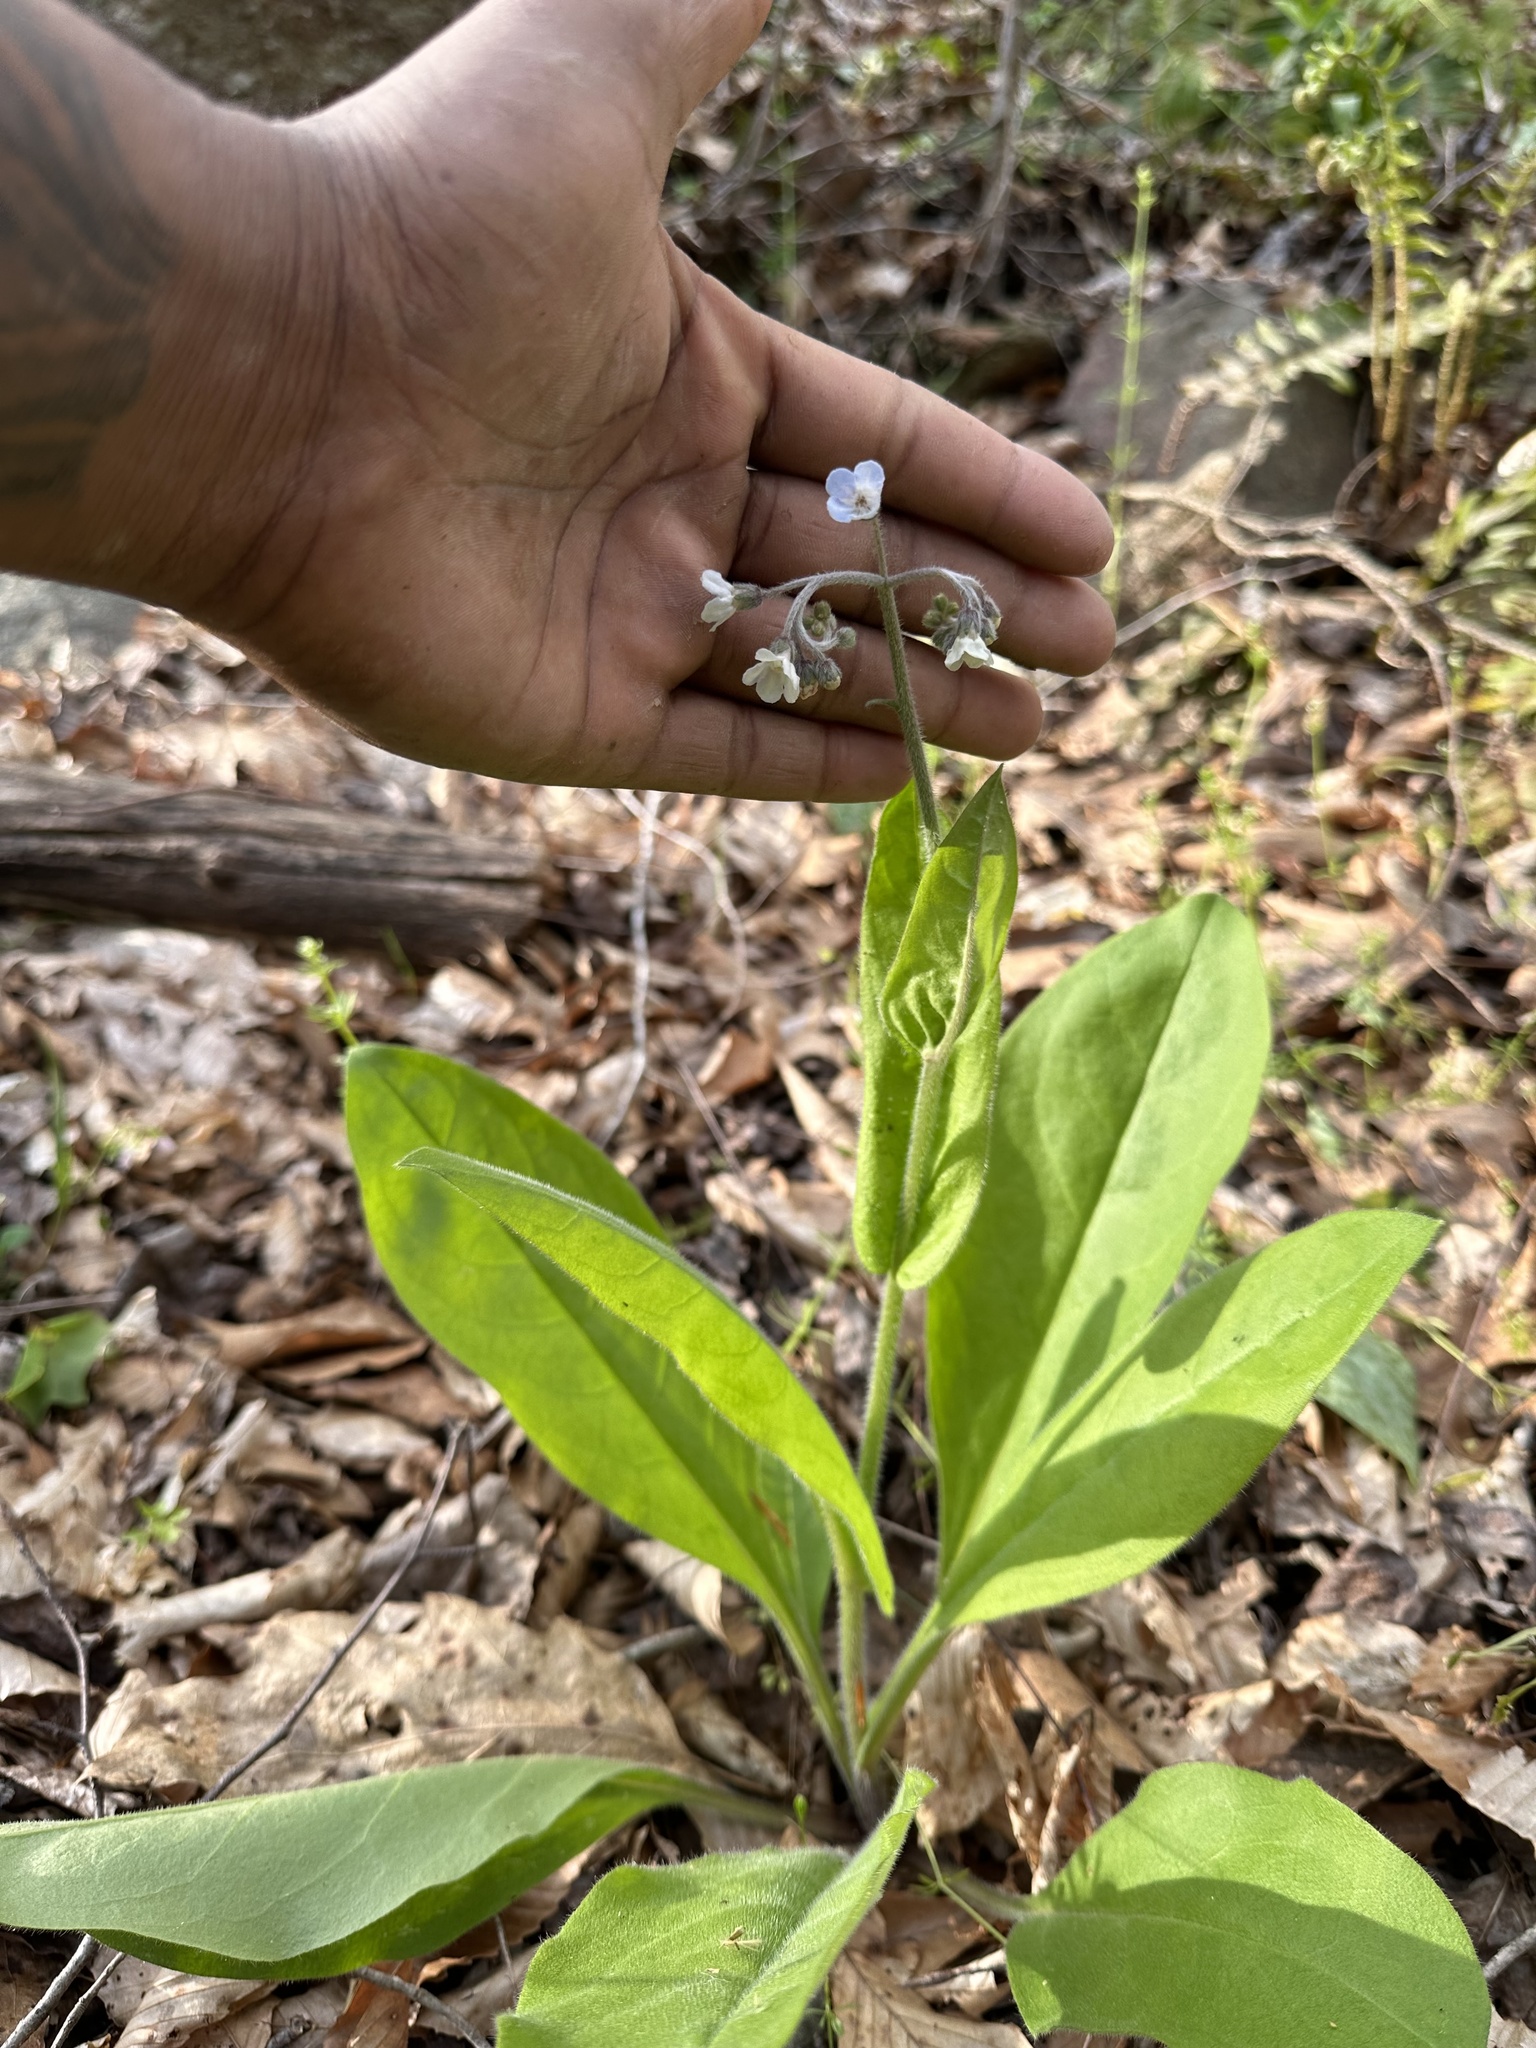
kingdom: Plantae
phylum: Tracheophyta
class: Magnoliopsida
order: Boraginales
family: Boraginaceae
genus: Andersonglossum
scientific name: Andersonglossum virginianum
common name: Wild comfrey
